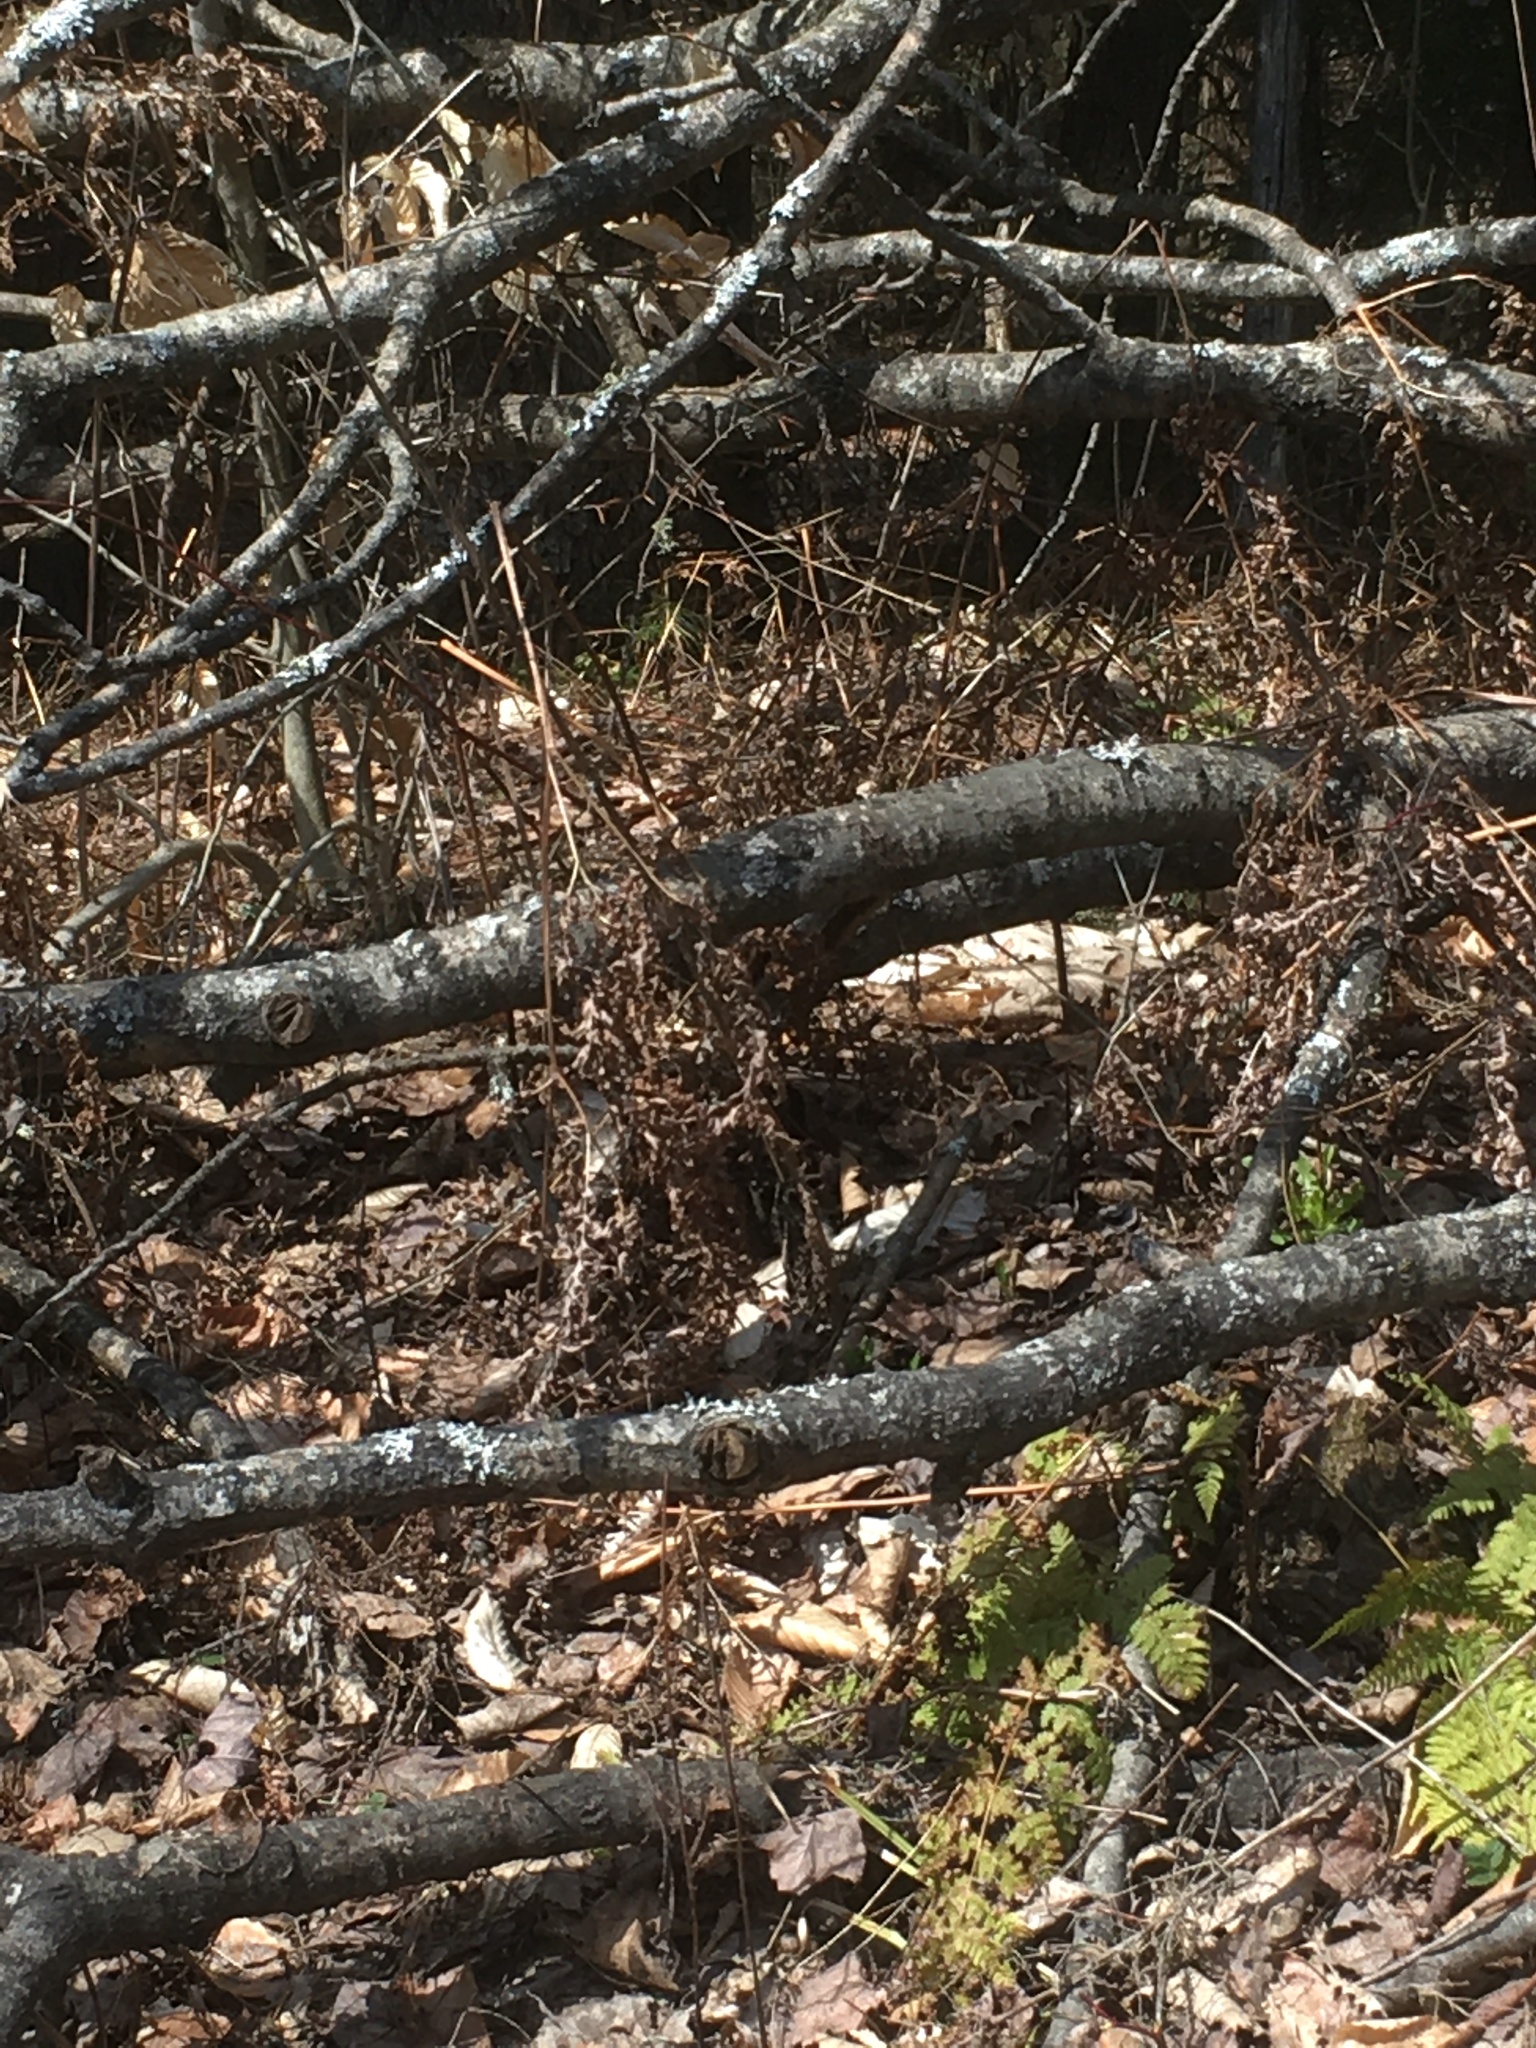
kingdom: Plantae
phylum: Tracheophyta
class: Polypodiopsida
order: Polypodiales
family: Dennstaedtiaceae
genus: Pteridium
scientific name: Pteridium aquilinum
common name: Bracken
